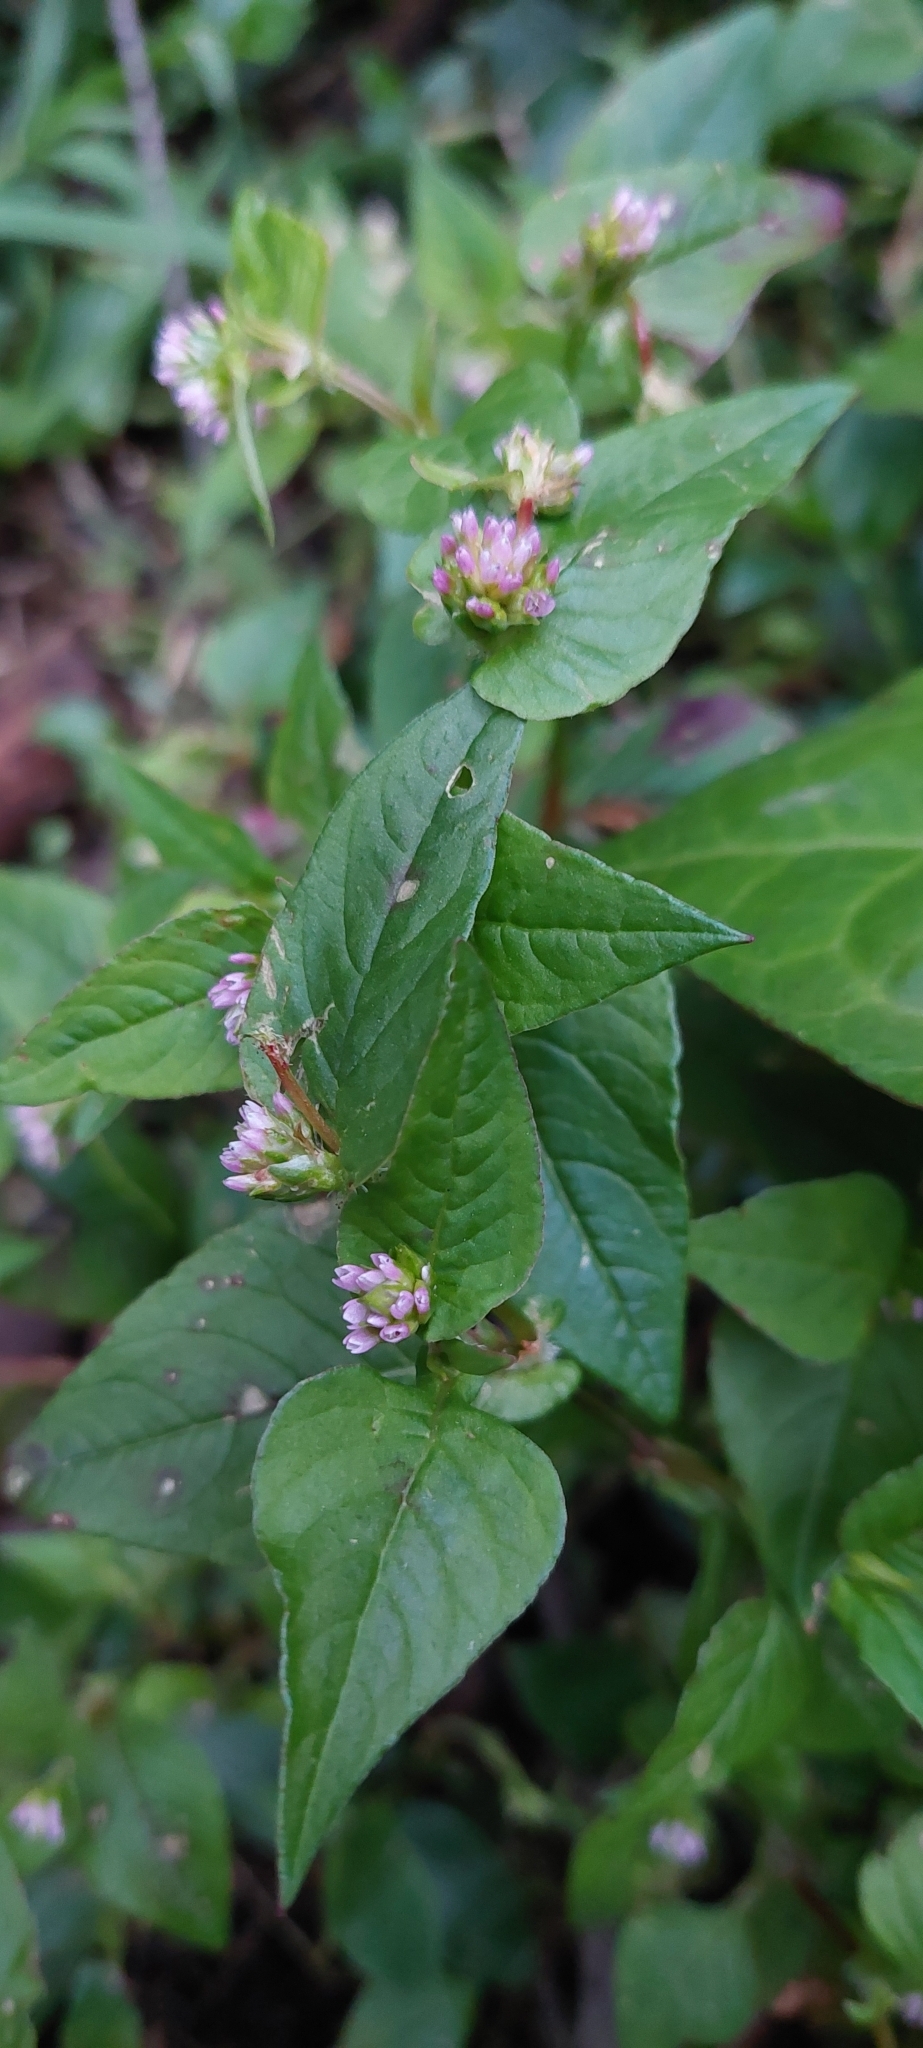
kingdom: Plantae
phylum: Tracheophyta
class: Magnoliopsida
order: Caryophyllales
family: Polygonaceae
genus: Persicaria
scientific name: Persicaria nepalensis
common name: Nepal persicaria
